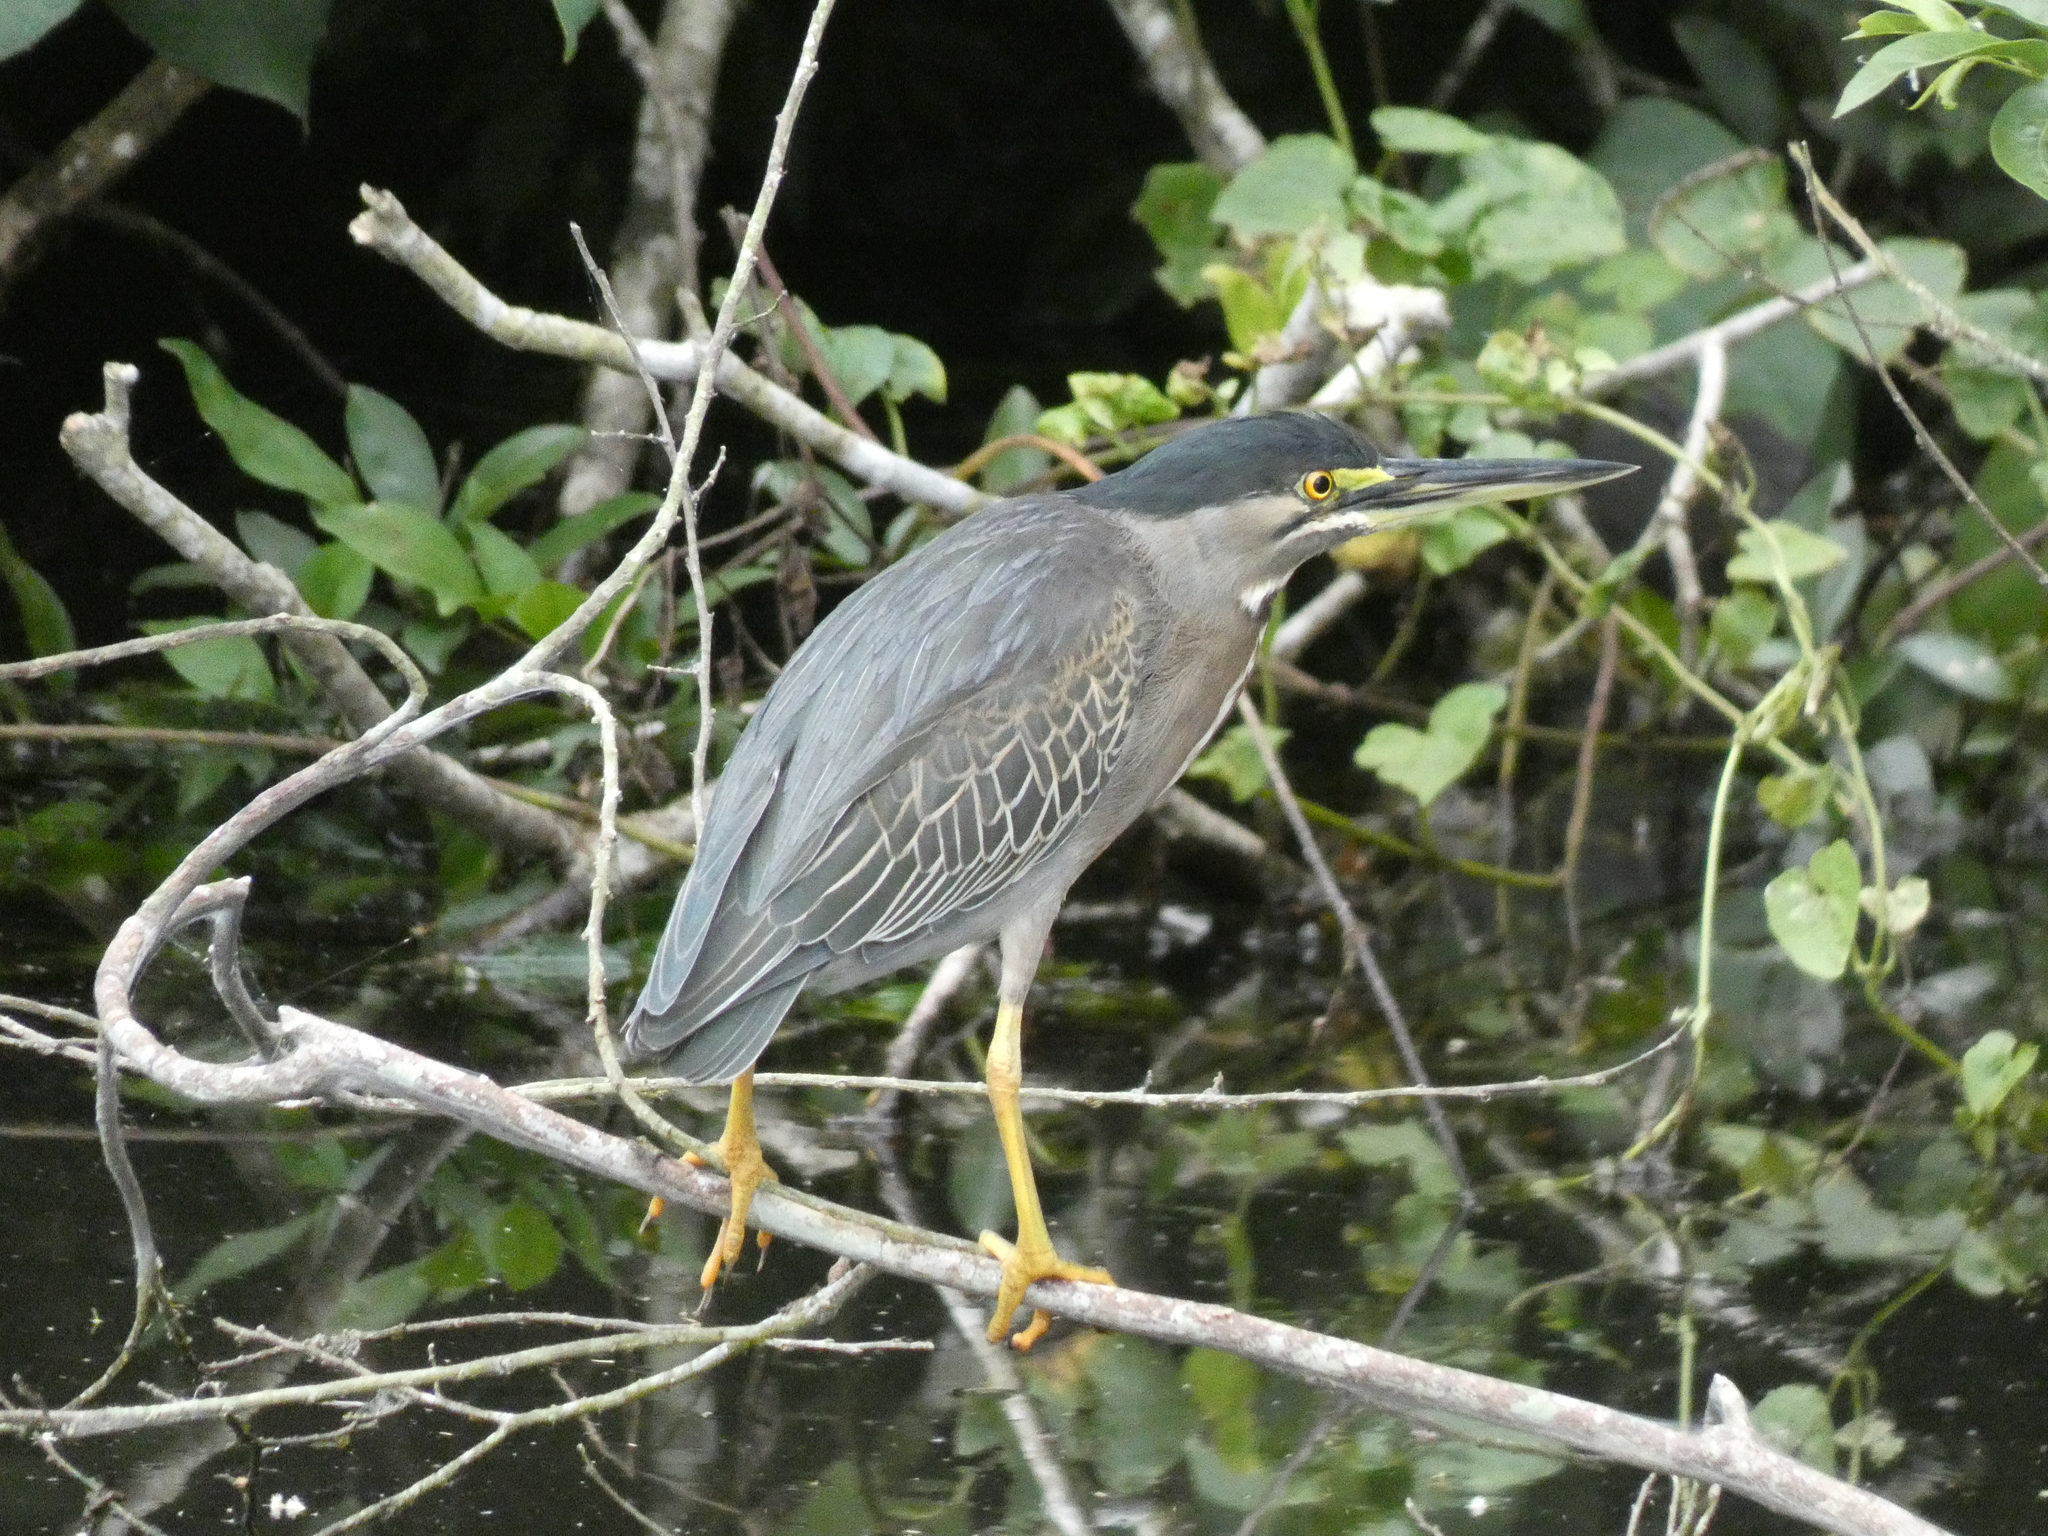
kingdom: Animalia
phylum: Chordata
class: Aves
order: Pelecaniformes
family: Ardeidae
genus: Butorides
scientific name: Butorides striata
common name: Striated heron
